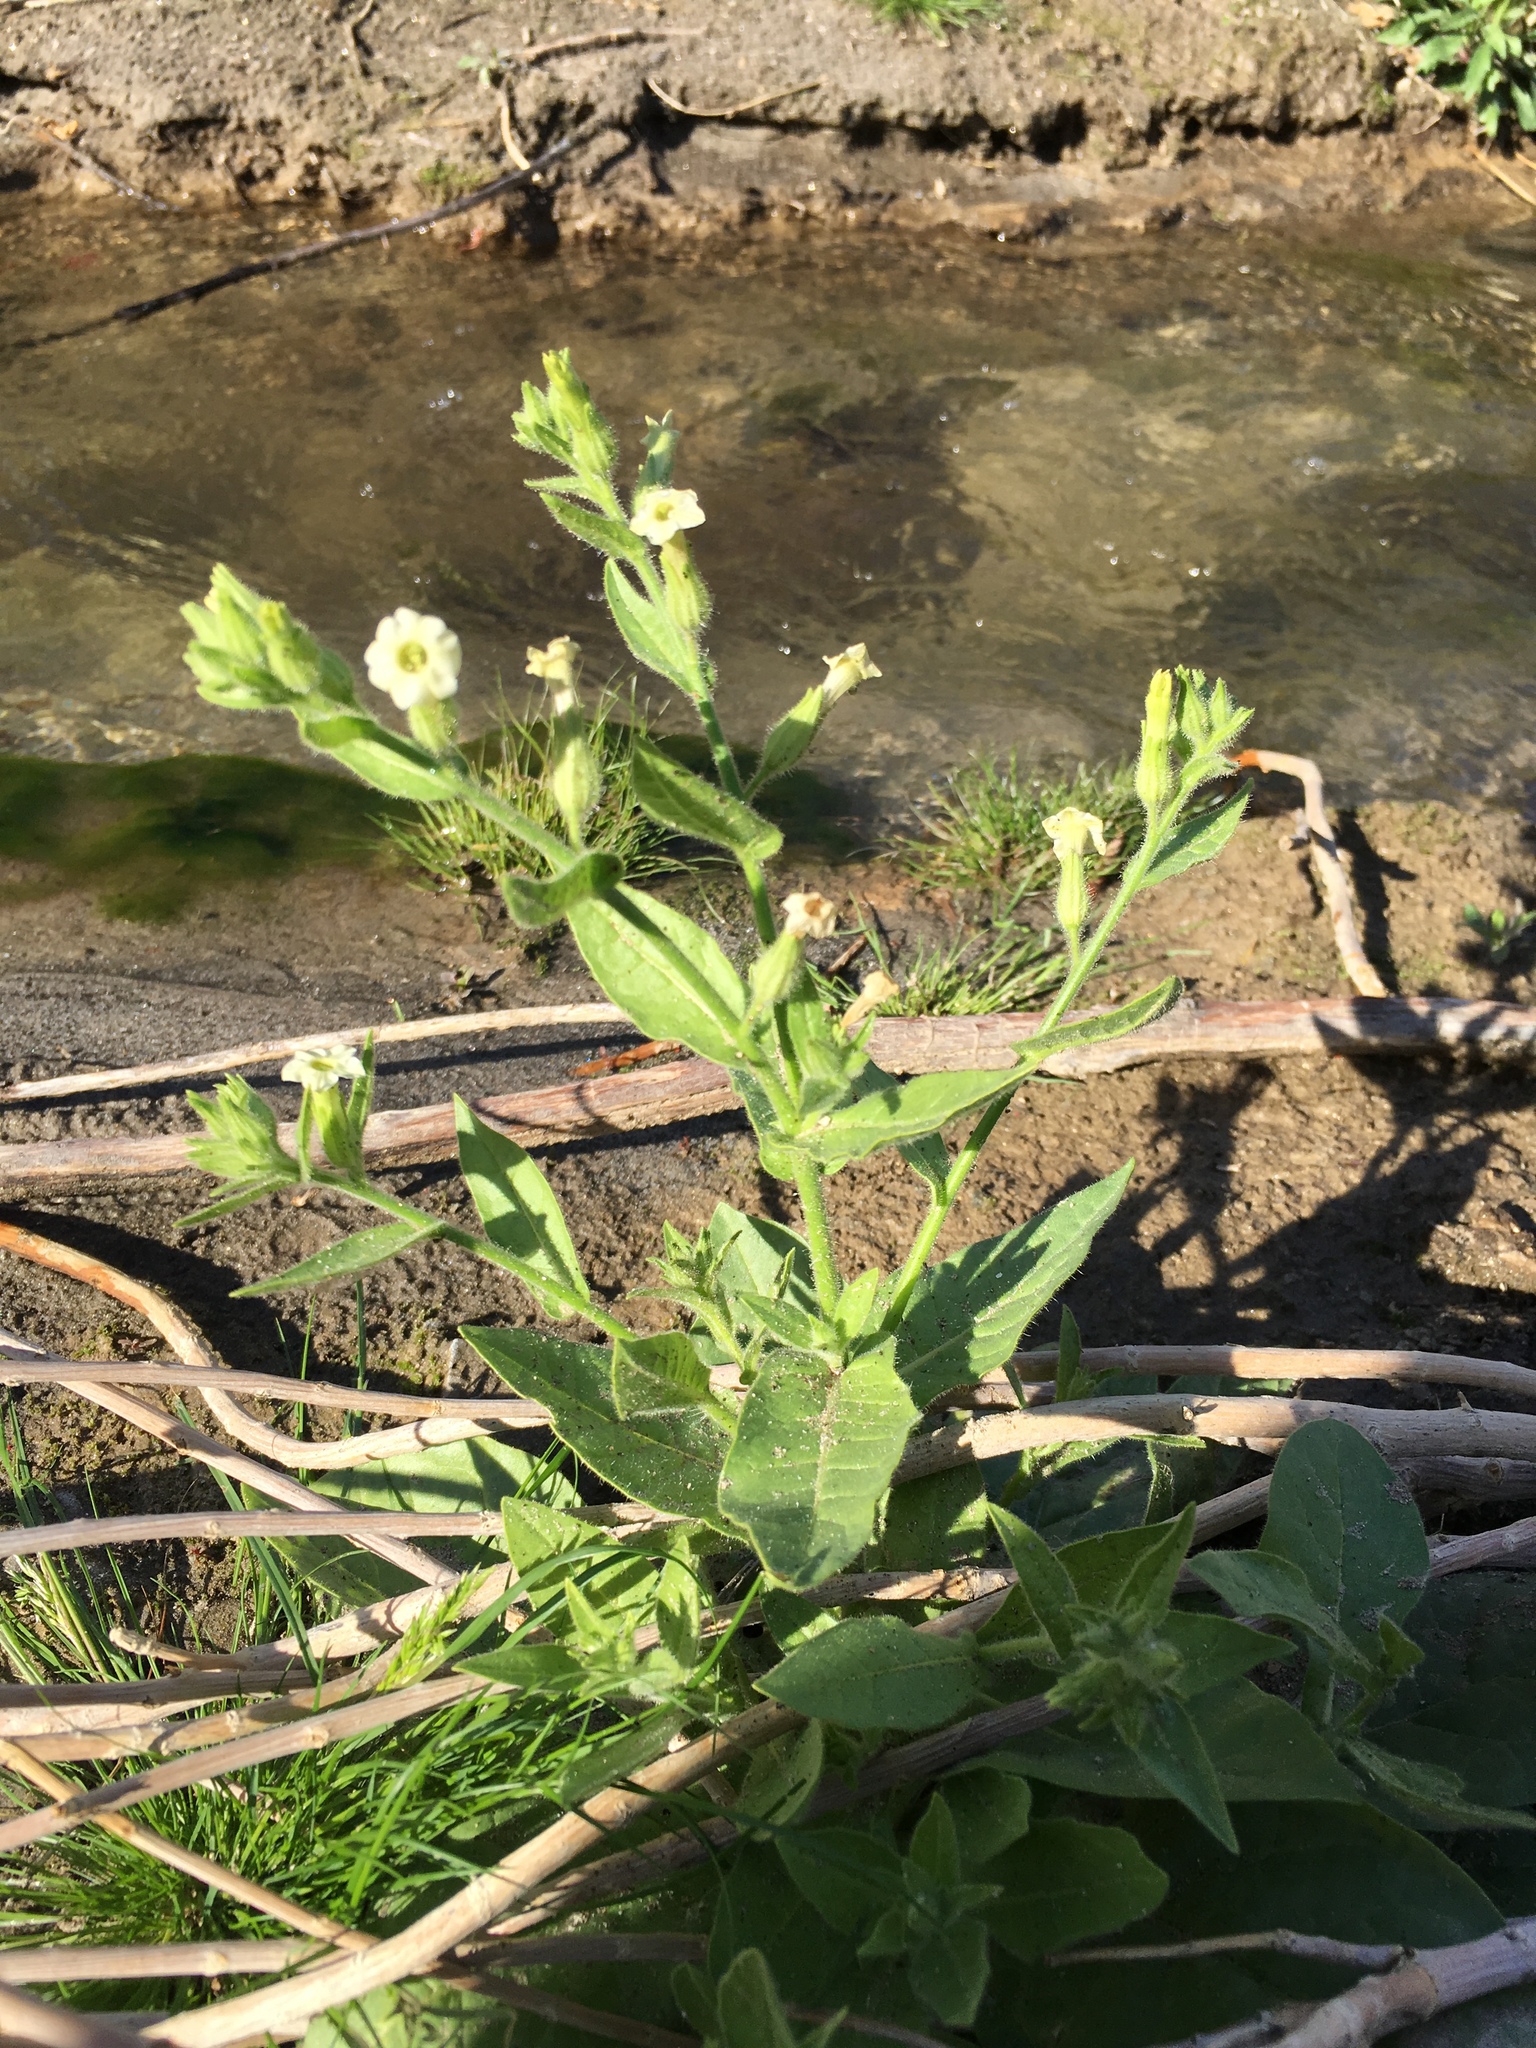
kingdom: Plantae
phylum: Tracheophyta
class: Magnoliopsida
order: Solanales
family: Solanaceae
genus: Nicotiana
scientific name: Nicotiana obtusifolia
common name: Desert tobacco
